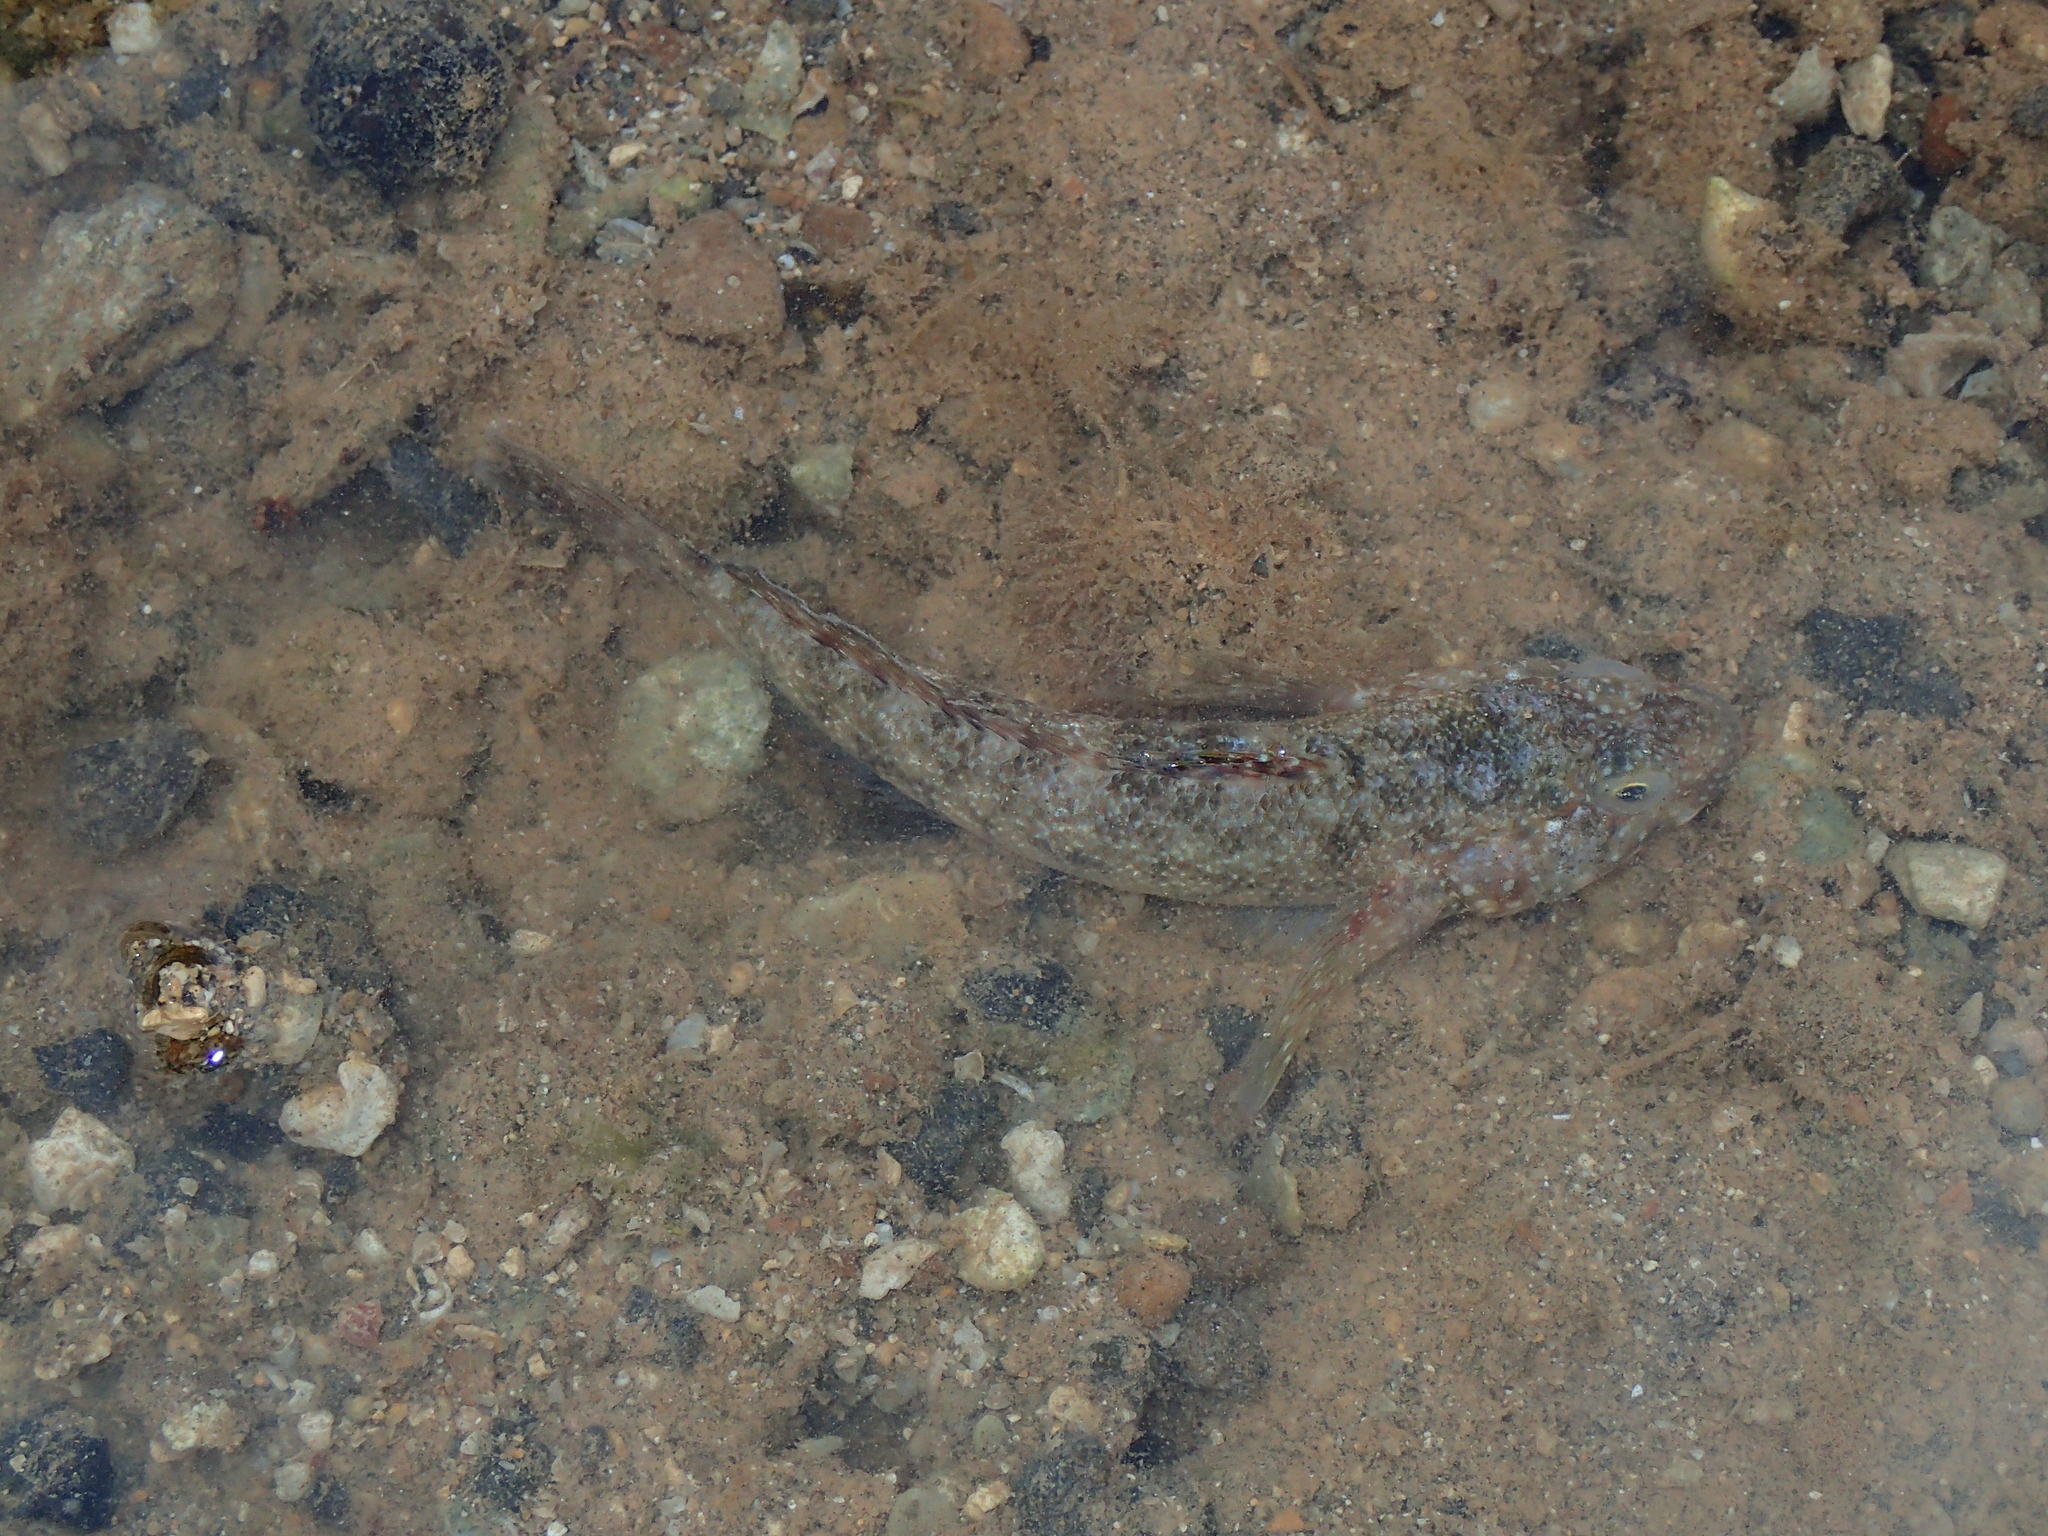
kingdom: Animalia
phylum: Chordata
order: Perciformes
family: Gobiidae
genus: Mauligobius
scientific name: Mauligobius maderensis
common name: Rock goby
